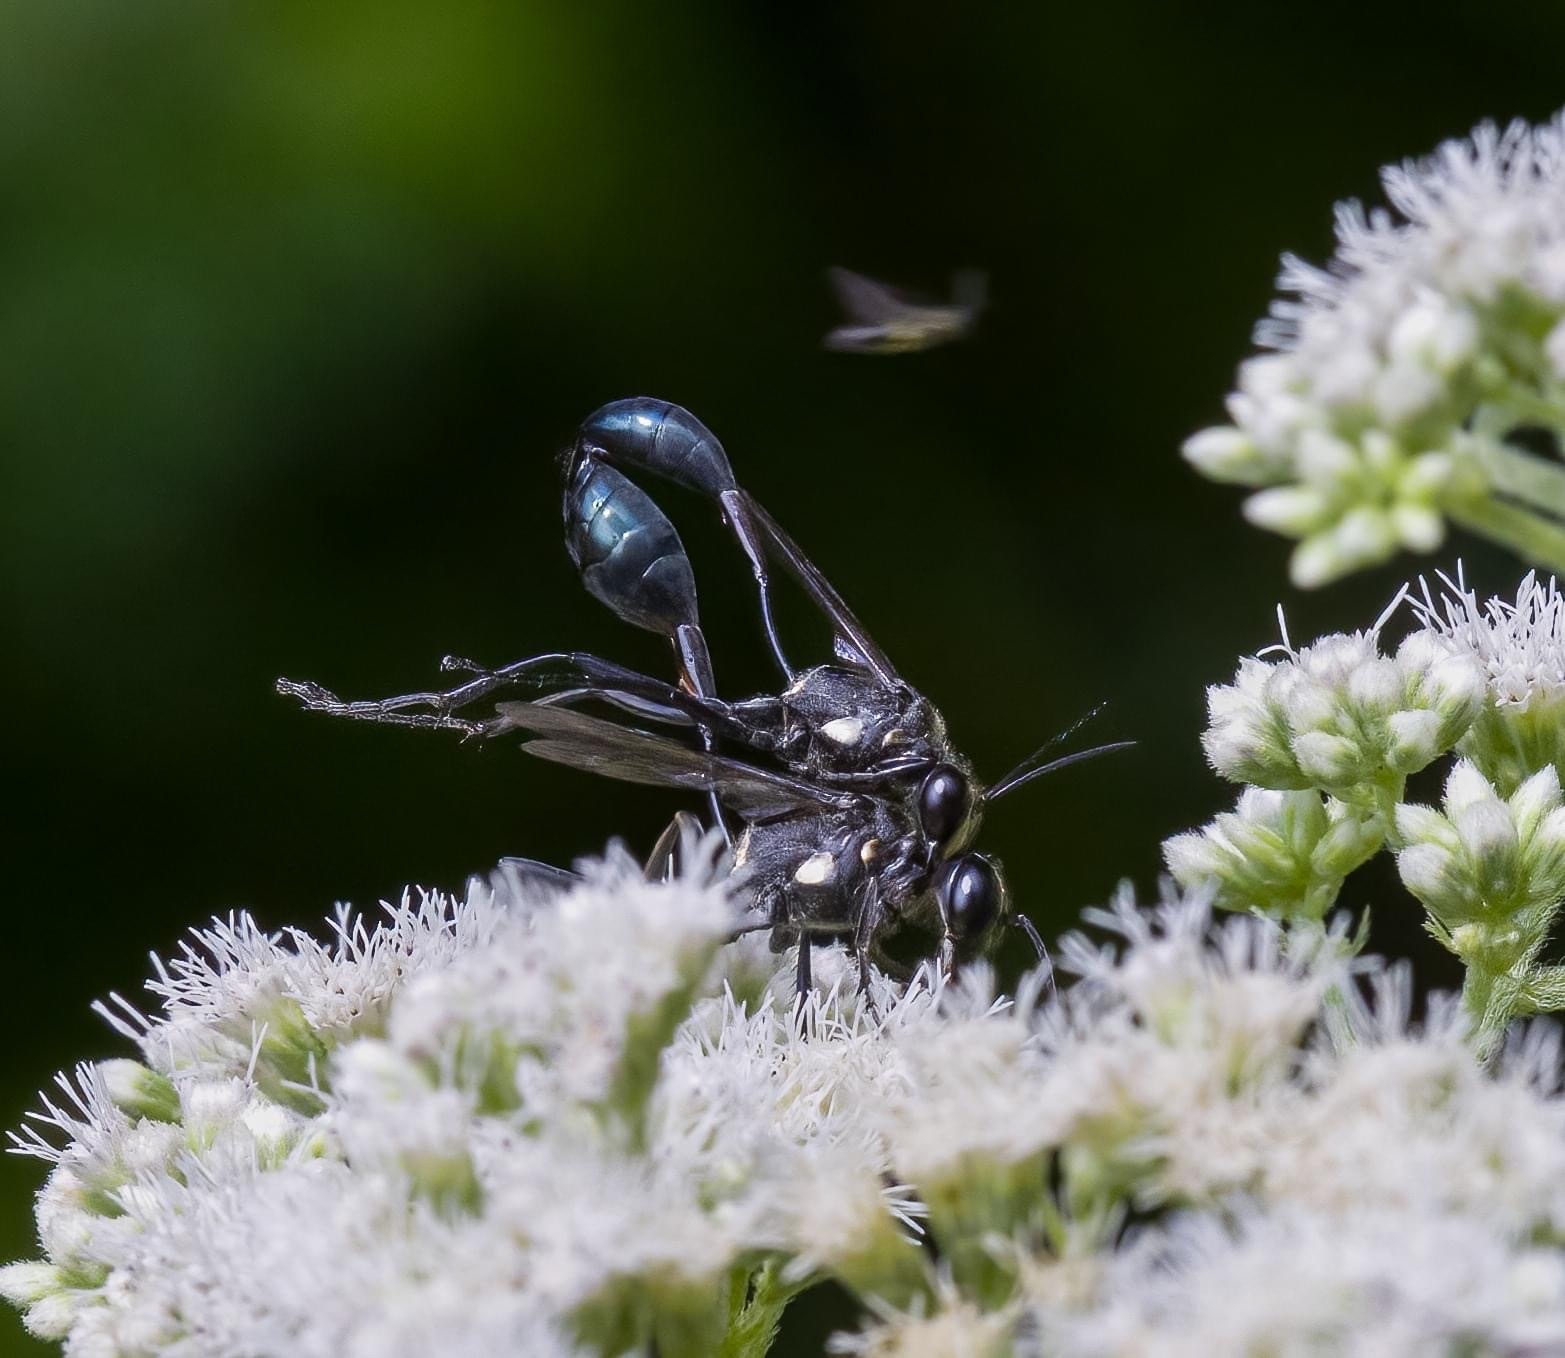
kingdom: Animalia
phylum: Arthropoda
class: Insecta
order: Hymenoptera
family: Sphecidae
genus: Eremnophila
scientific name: Eremnophila aureonotata
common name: Gold-marked thread-waisted wasp
